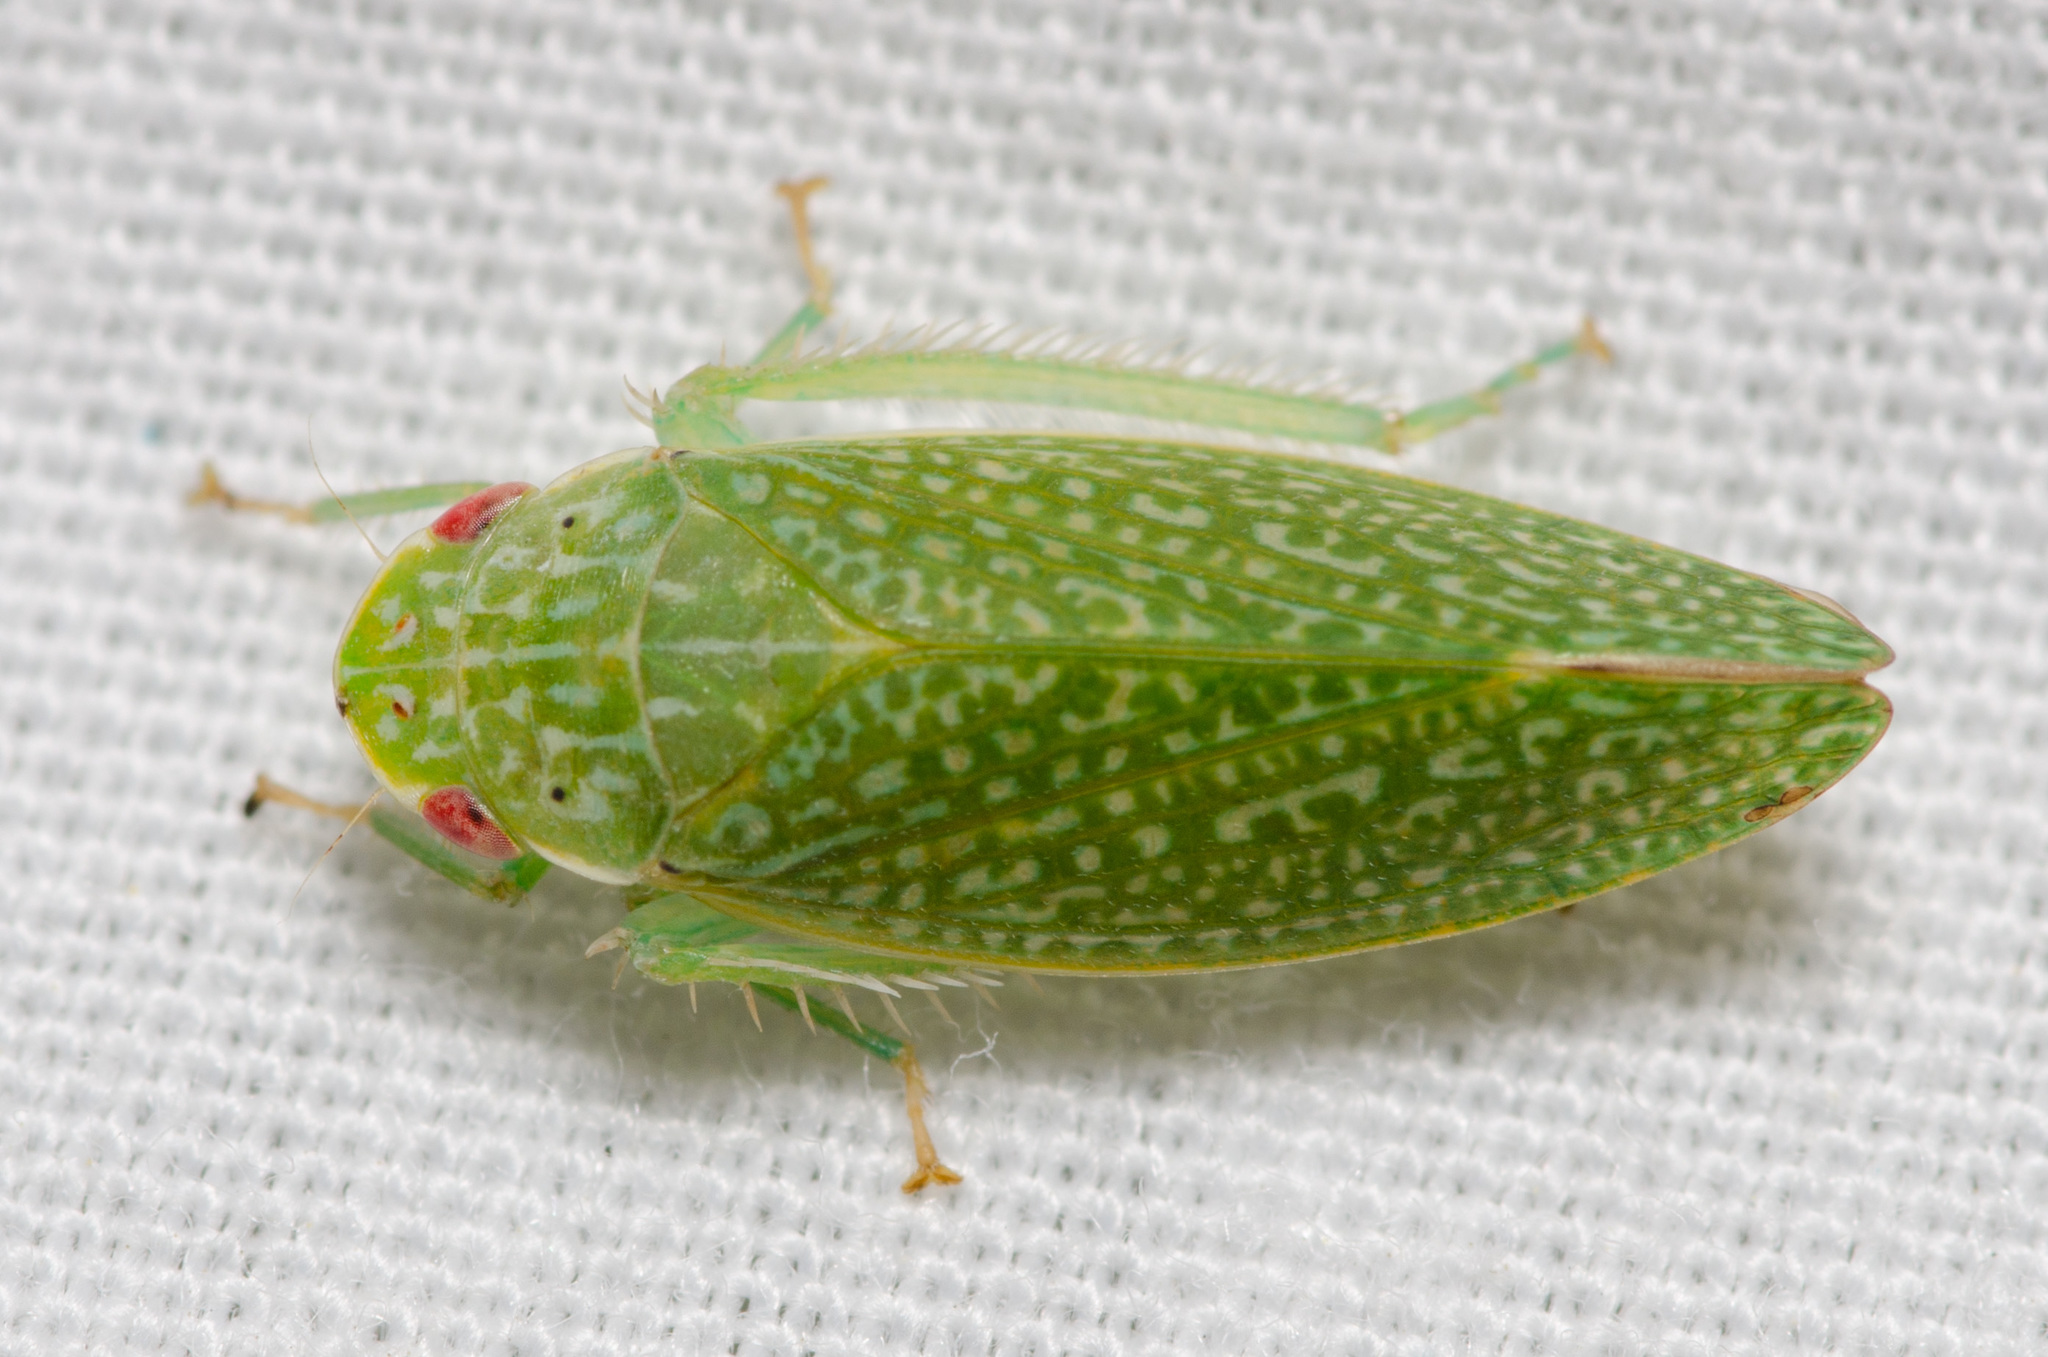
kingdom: Animalia
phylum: Arthropoda
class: Insecta
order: Hemiptera
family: Cicadellidae
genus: Rugosana
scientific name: Rugosana querci
